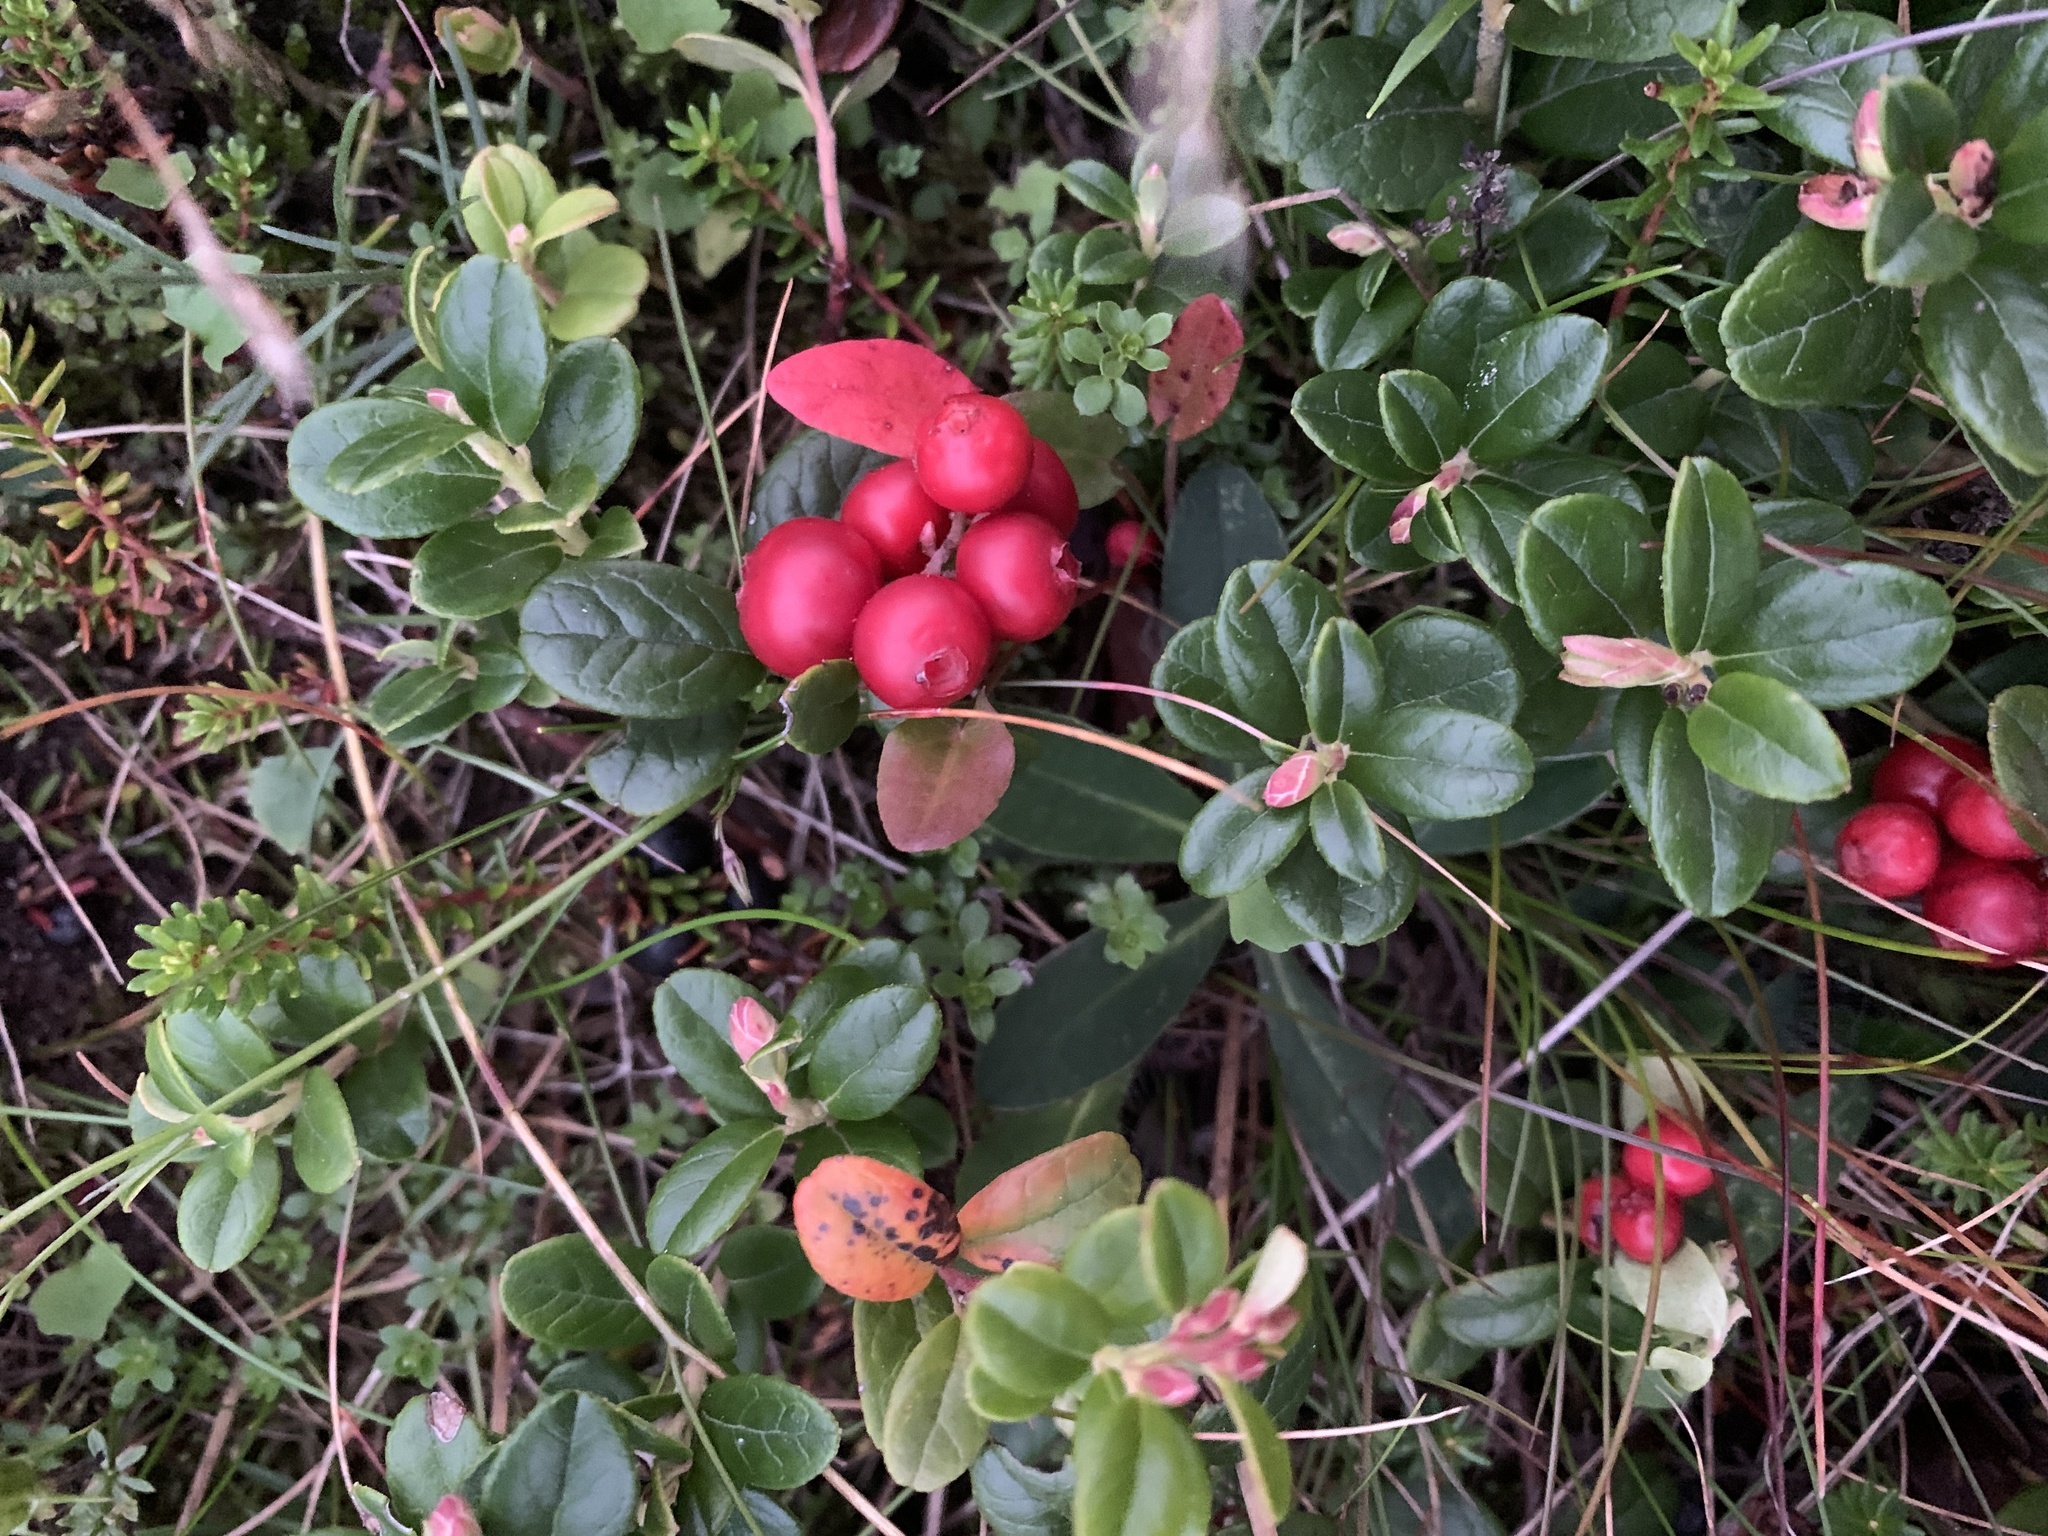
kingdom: Plantae
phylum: Tracheophyta
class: Magnoliopsida
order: Ericales
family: Ericaceae
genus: Vaccinium
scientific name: Vaccinium vitis-idaea
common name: Cowberry
